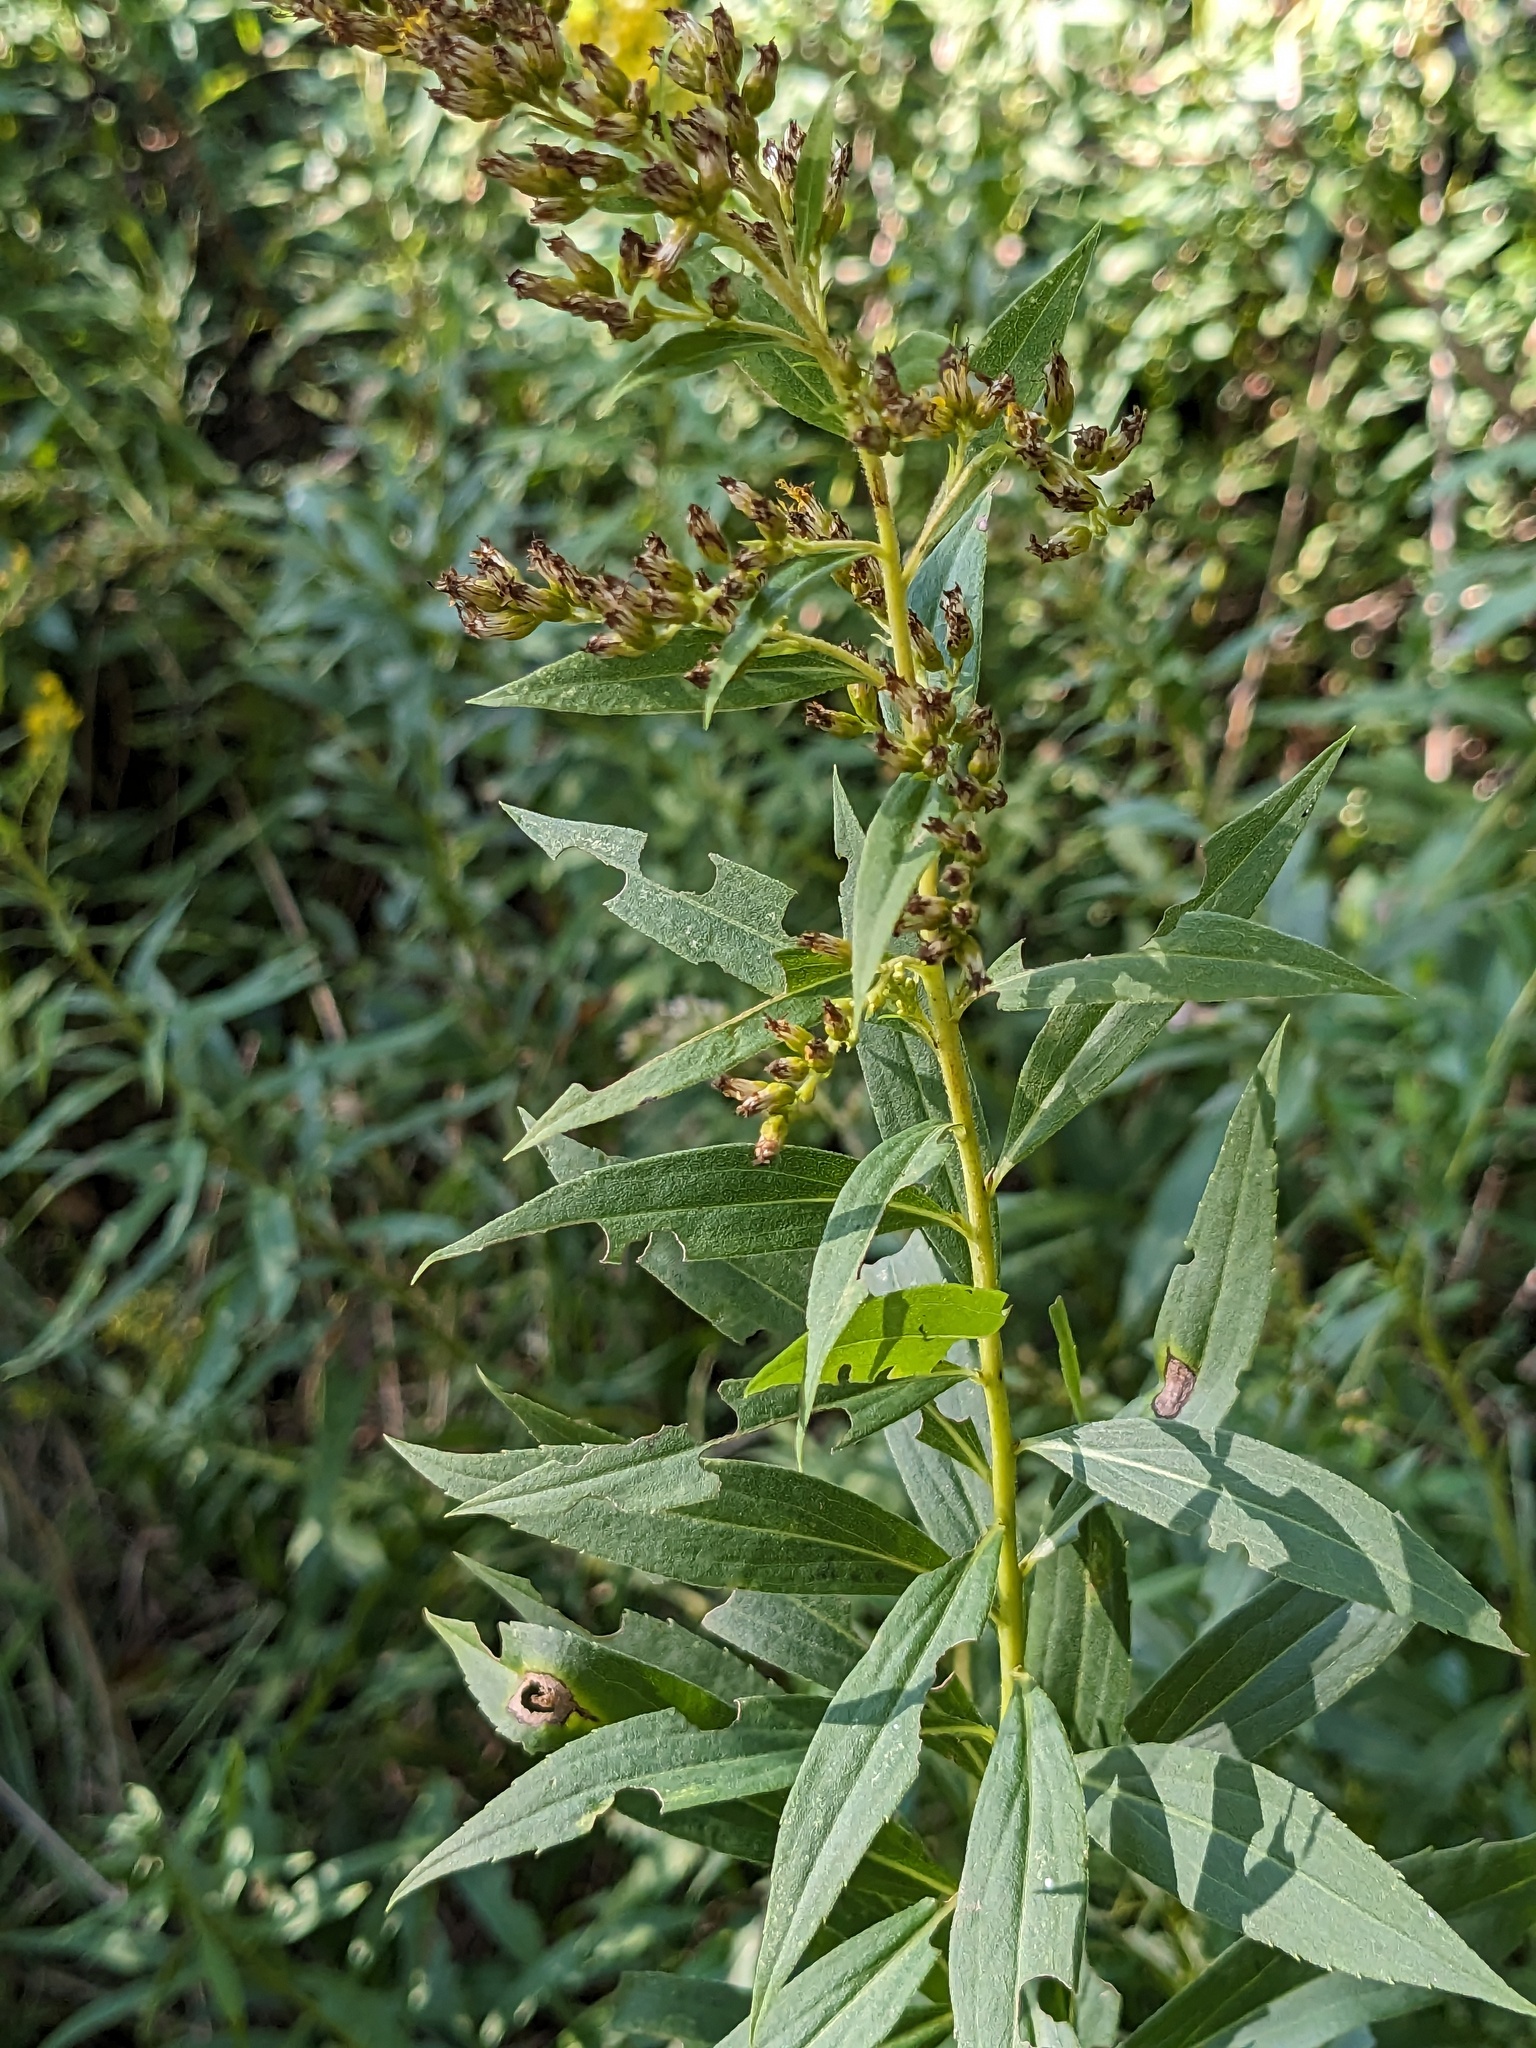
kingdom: Plantae
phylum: Tracheophyta
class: Magnoliopsida
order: Asterales
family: Asteraceae
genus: Solidago
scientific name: Solidago gigantea
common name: Giant goldenrod
